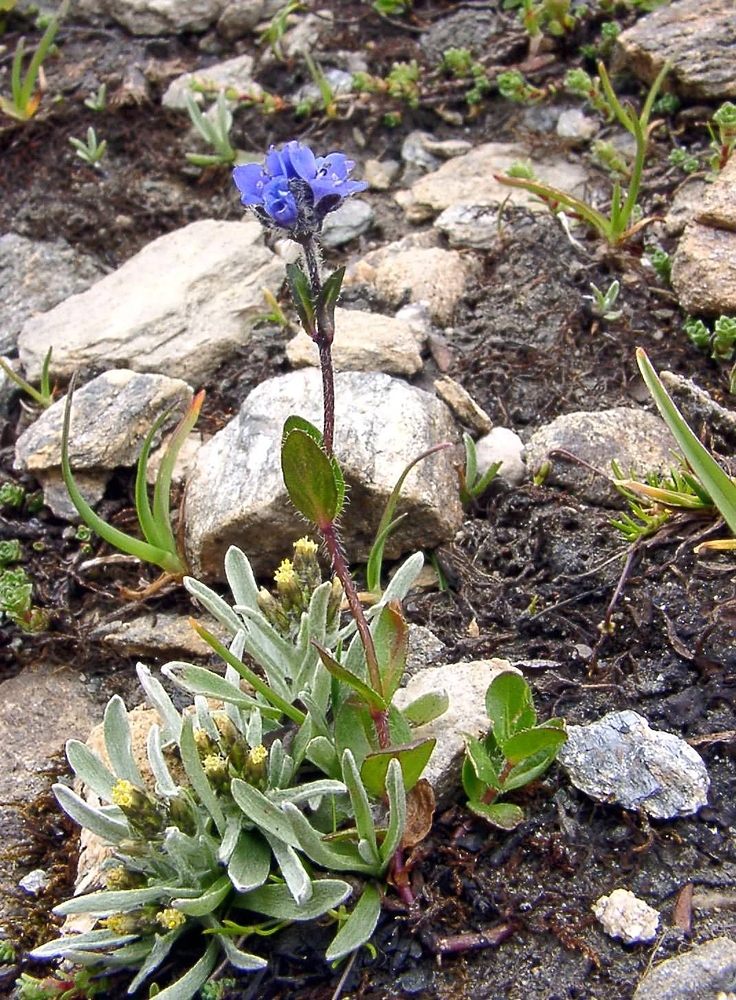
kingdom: Plantae
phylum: Tracheophyta
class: Magnoliopsida
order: Lamiales
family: Plantaginaceae
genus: Veronica
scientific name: Veronica alpina
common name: Alpine speedwell
